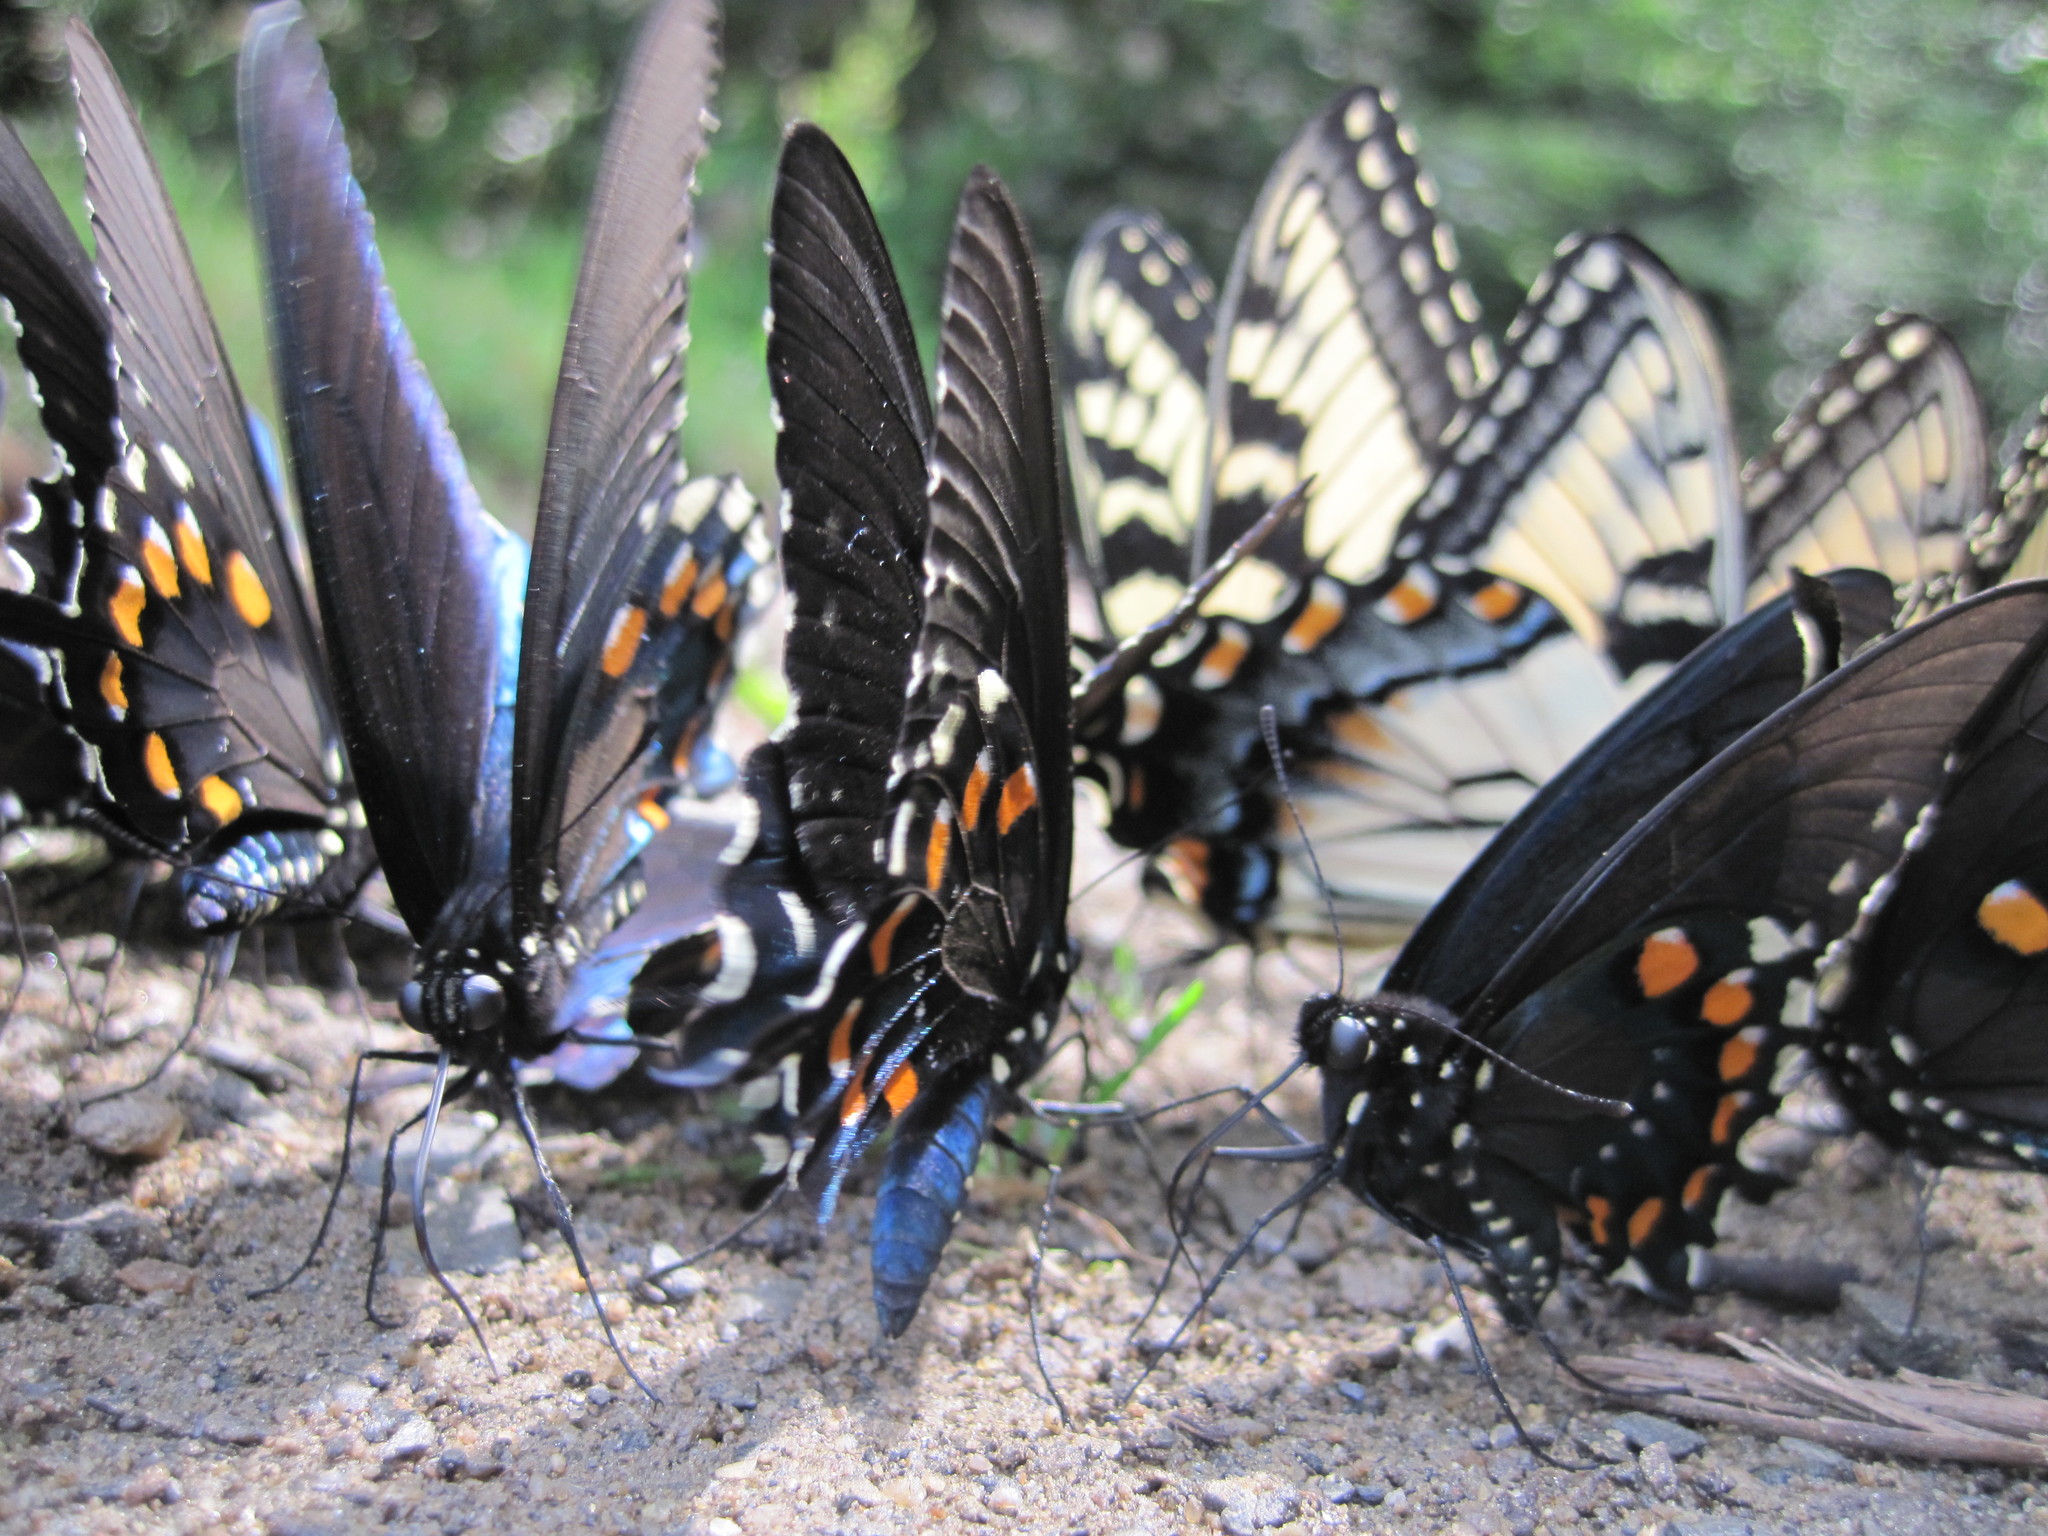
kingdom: Animalia
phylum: Arthropoda
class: Insecta
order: Lepidoptera
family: Papilionidae
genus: Battus
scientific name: Battus philenor
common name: Pipevine swallowtail
